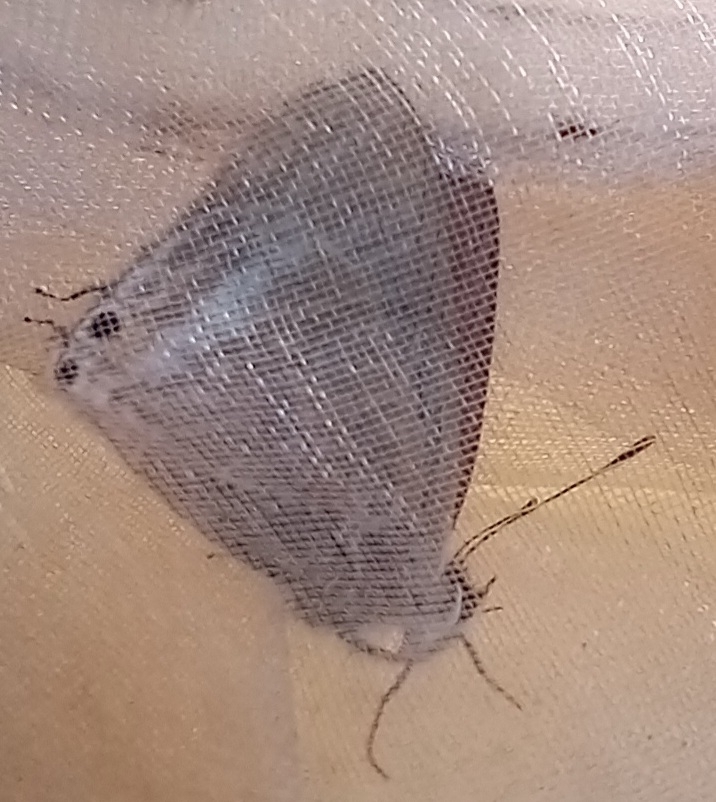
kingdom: Animalia
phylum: Arthropoda
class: Insecta
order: Lepidoptera
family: Lycaenidae
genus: Lampides
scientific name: Lampides boeticus
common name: Long-tailed blue
